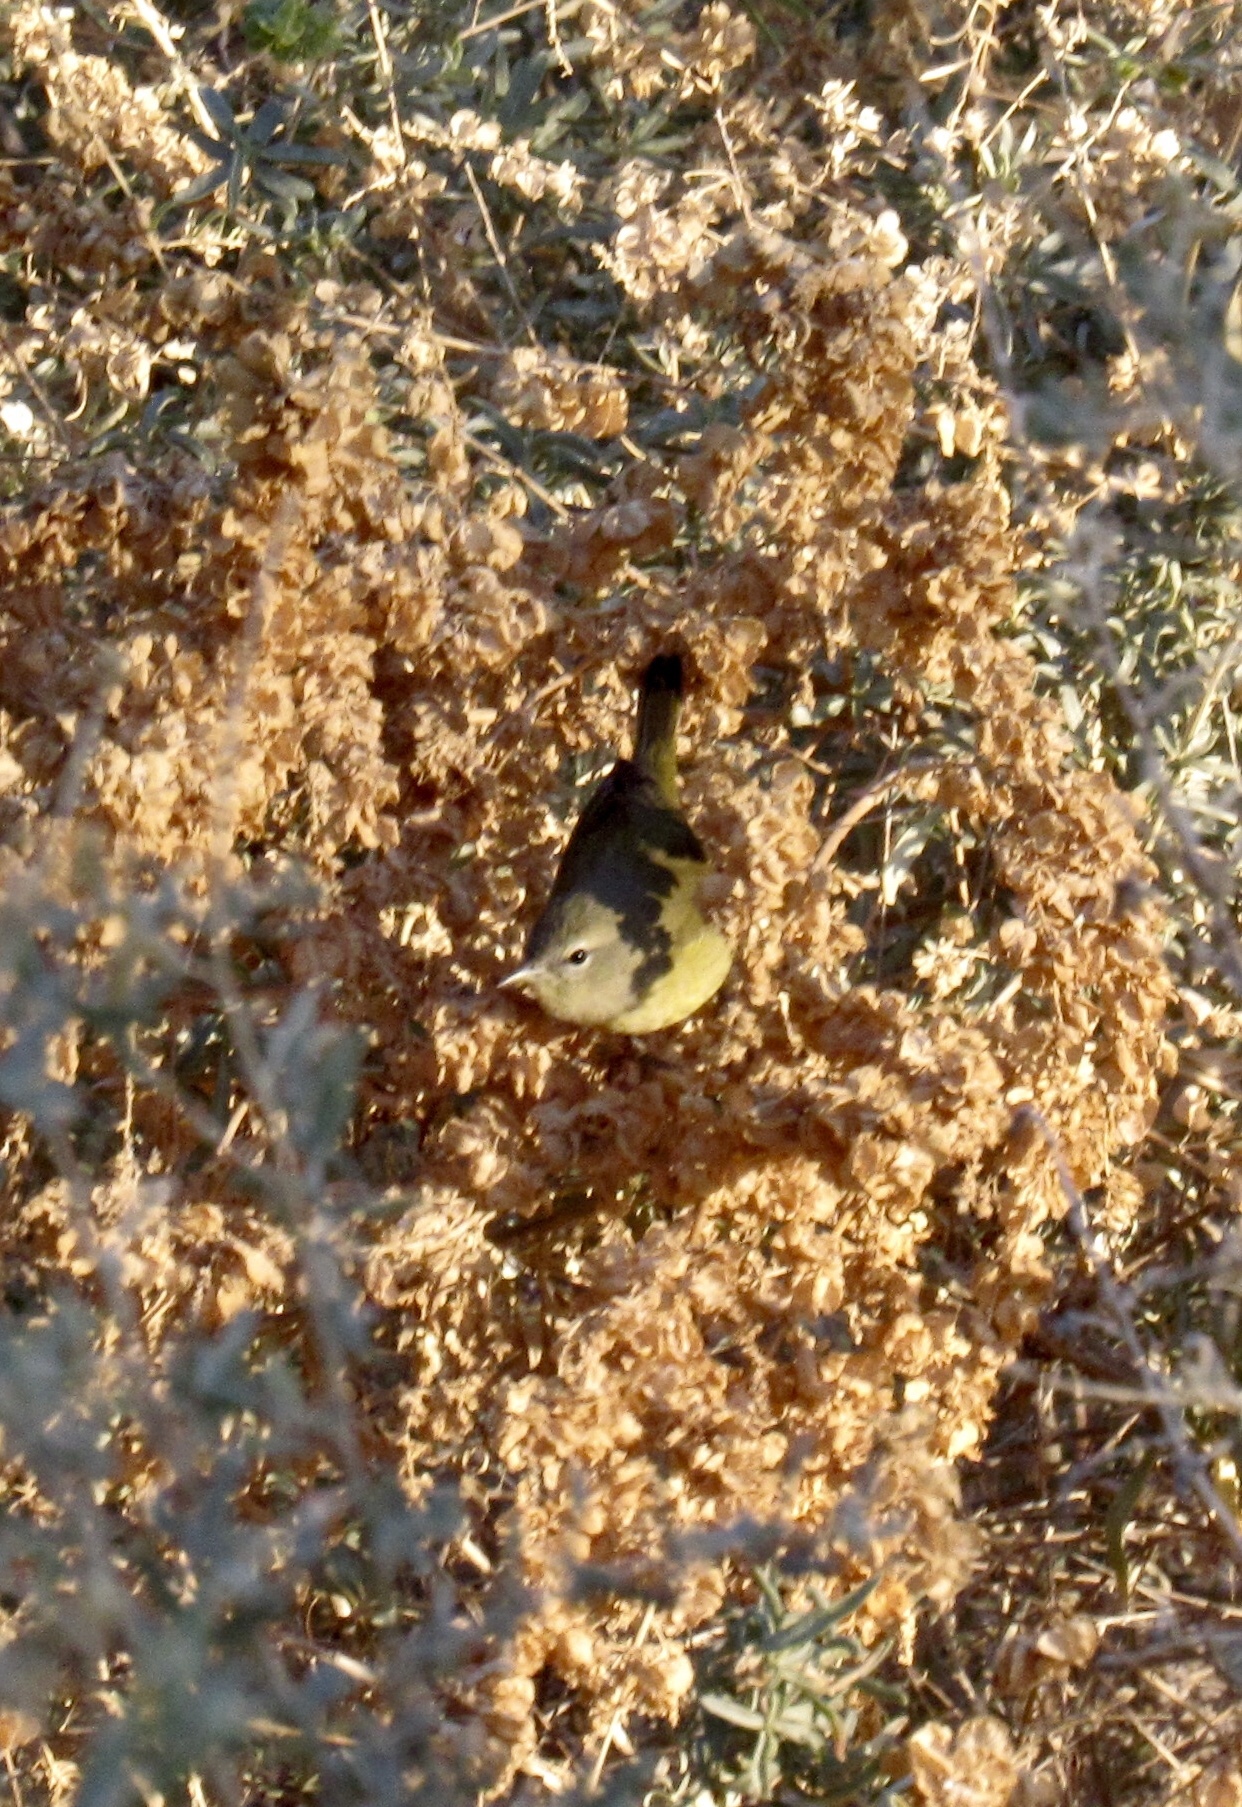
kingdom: Animalia
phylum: Chordata
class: Aves
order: Passeriformes
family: Parulidae
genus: Leiothlypis
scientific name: Leiothlypis celata
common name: Orange-crowned warbler
